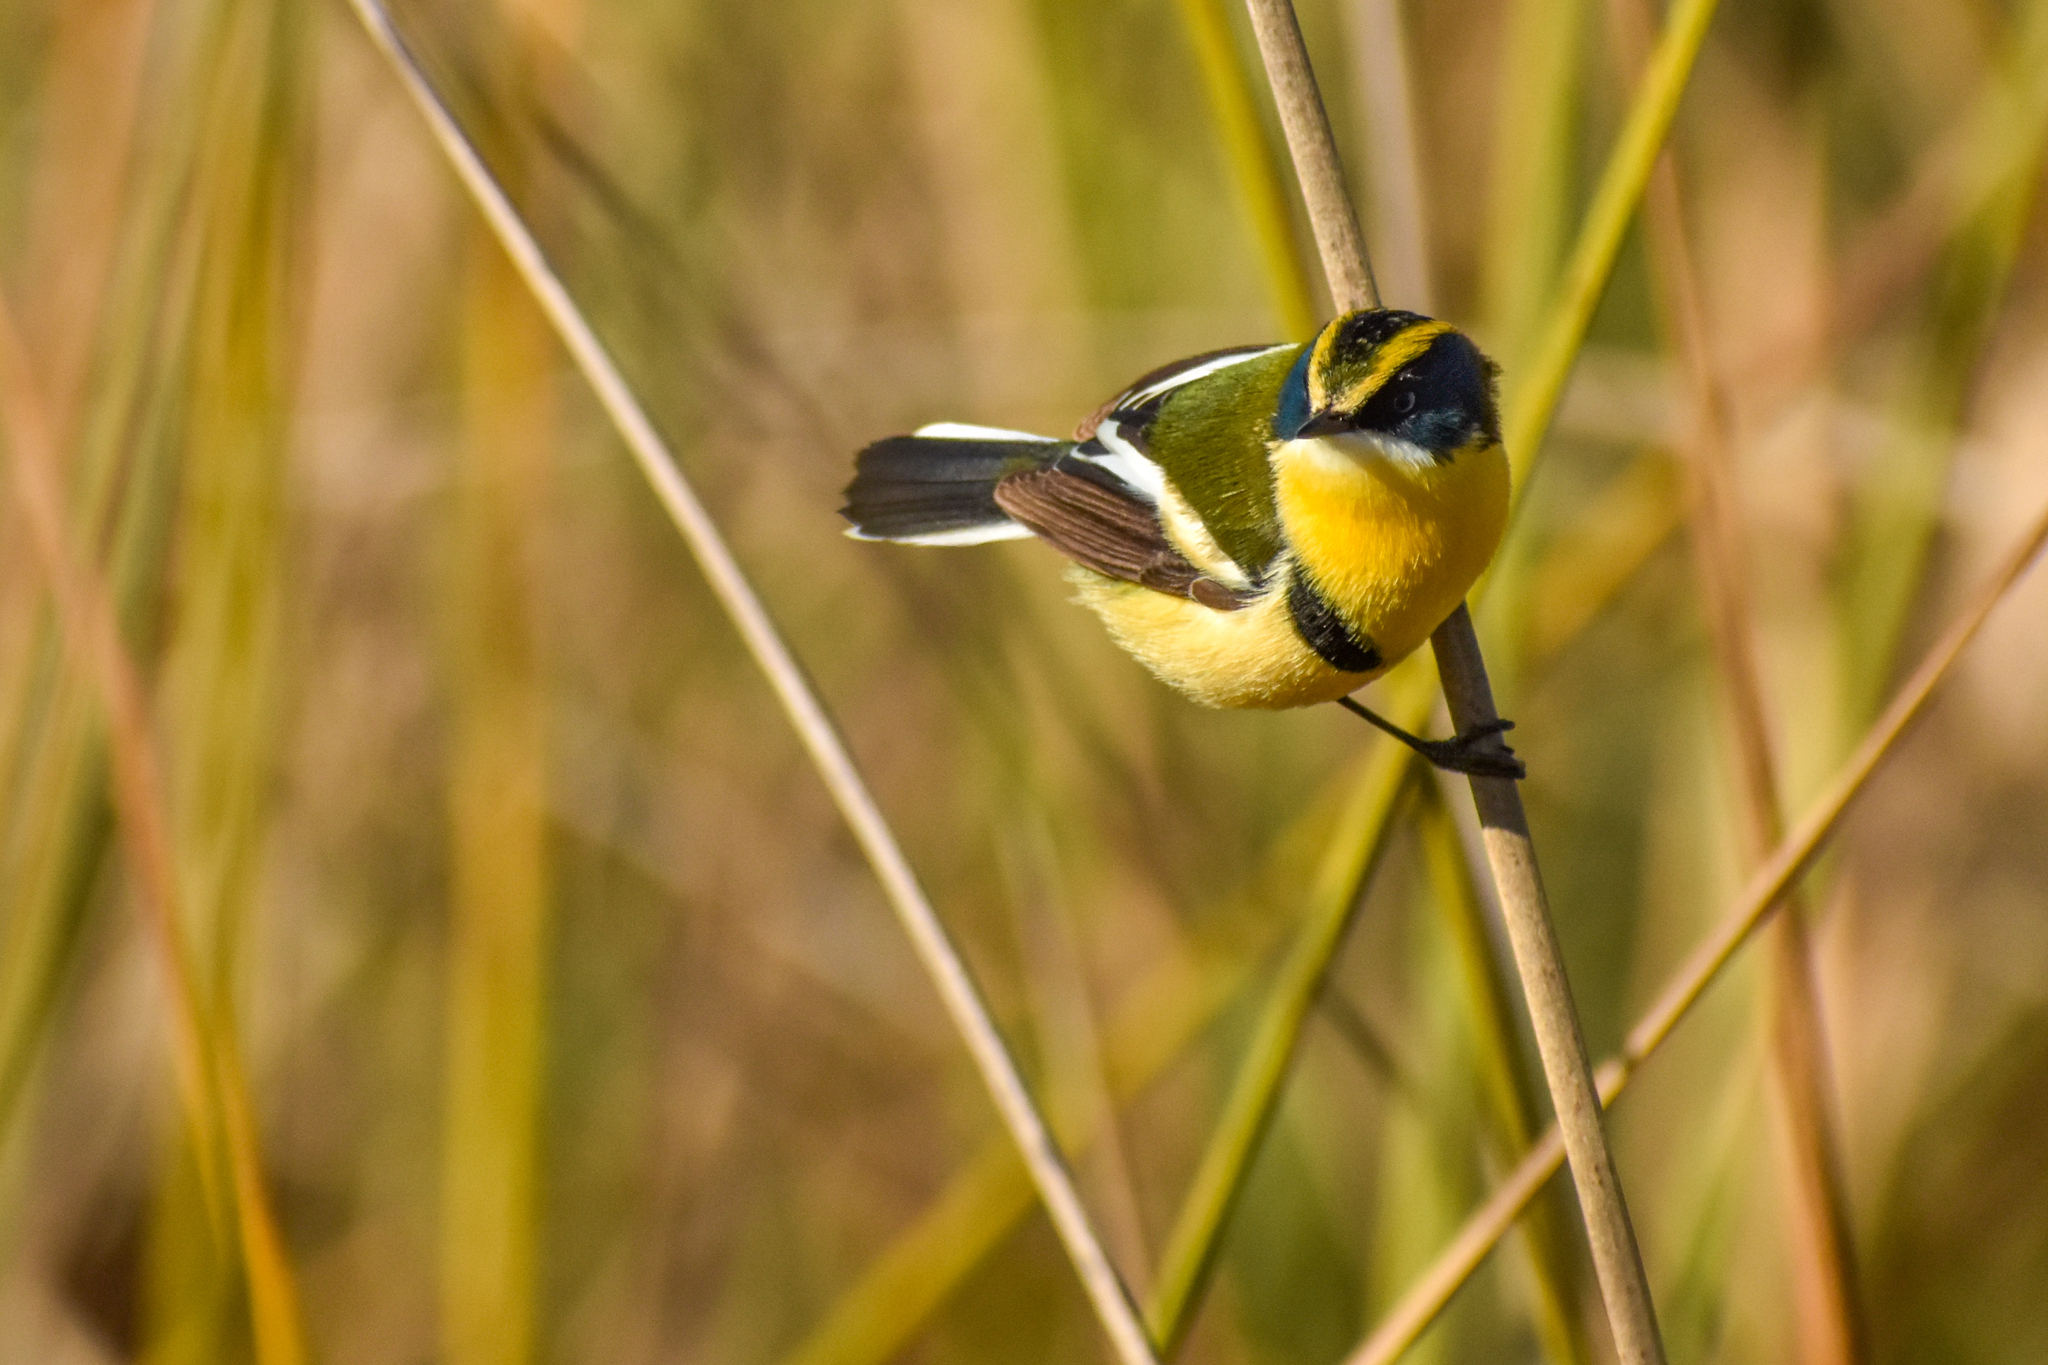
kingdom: Animalia
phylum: Chordata
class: Aves
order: Passeriformes
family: Tyrannidae
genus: Tachuris
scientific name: Tachuris rubrigastra
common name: Many-colored rush tyrant
